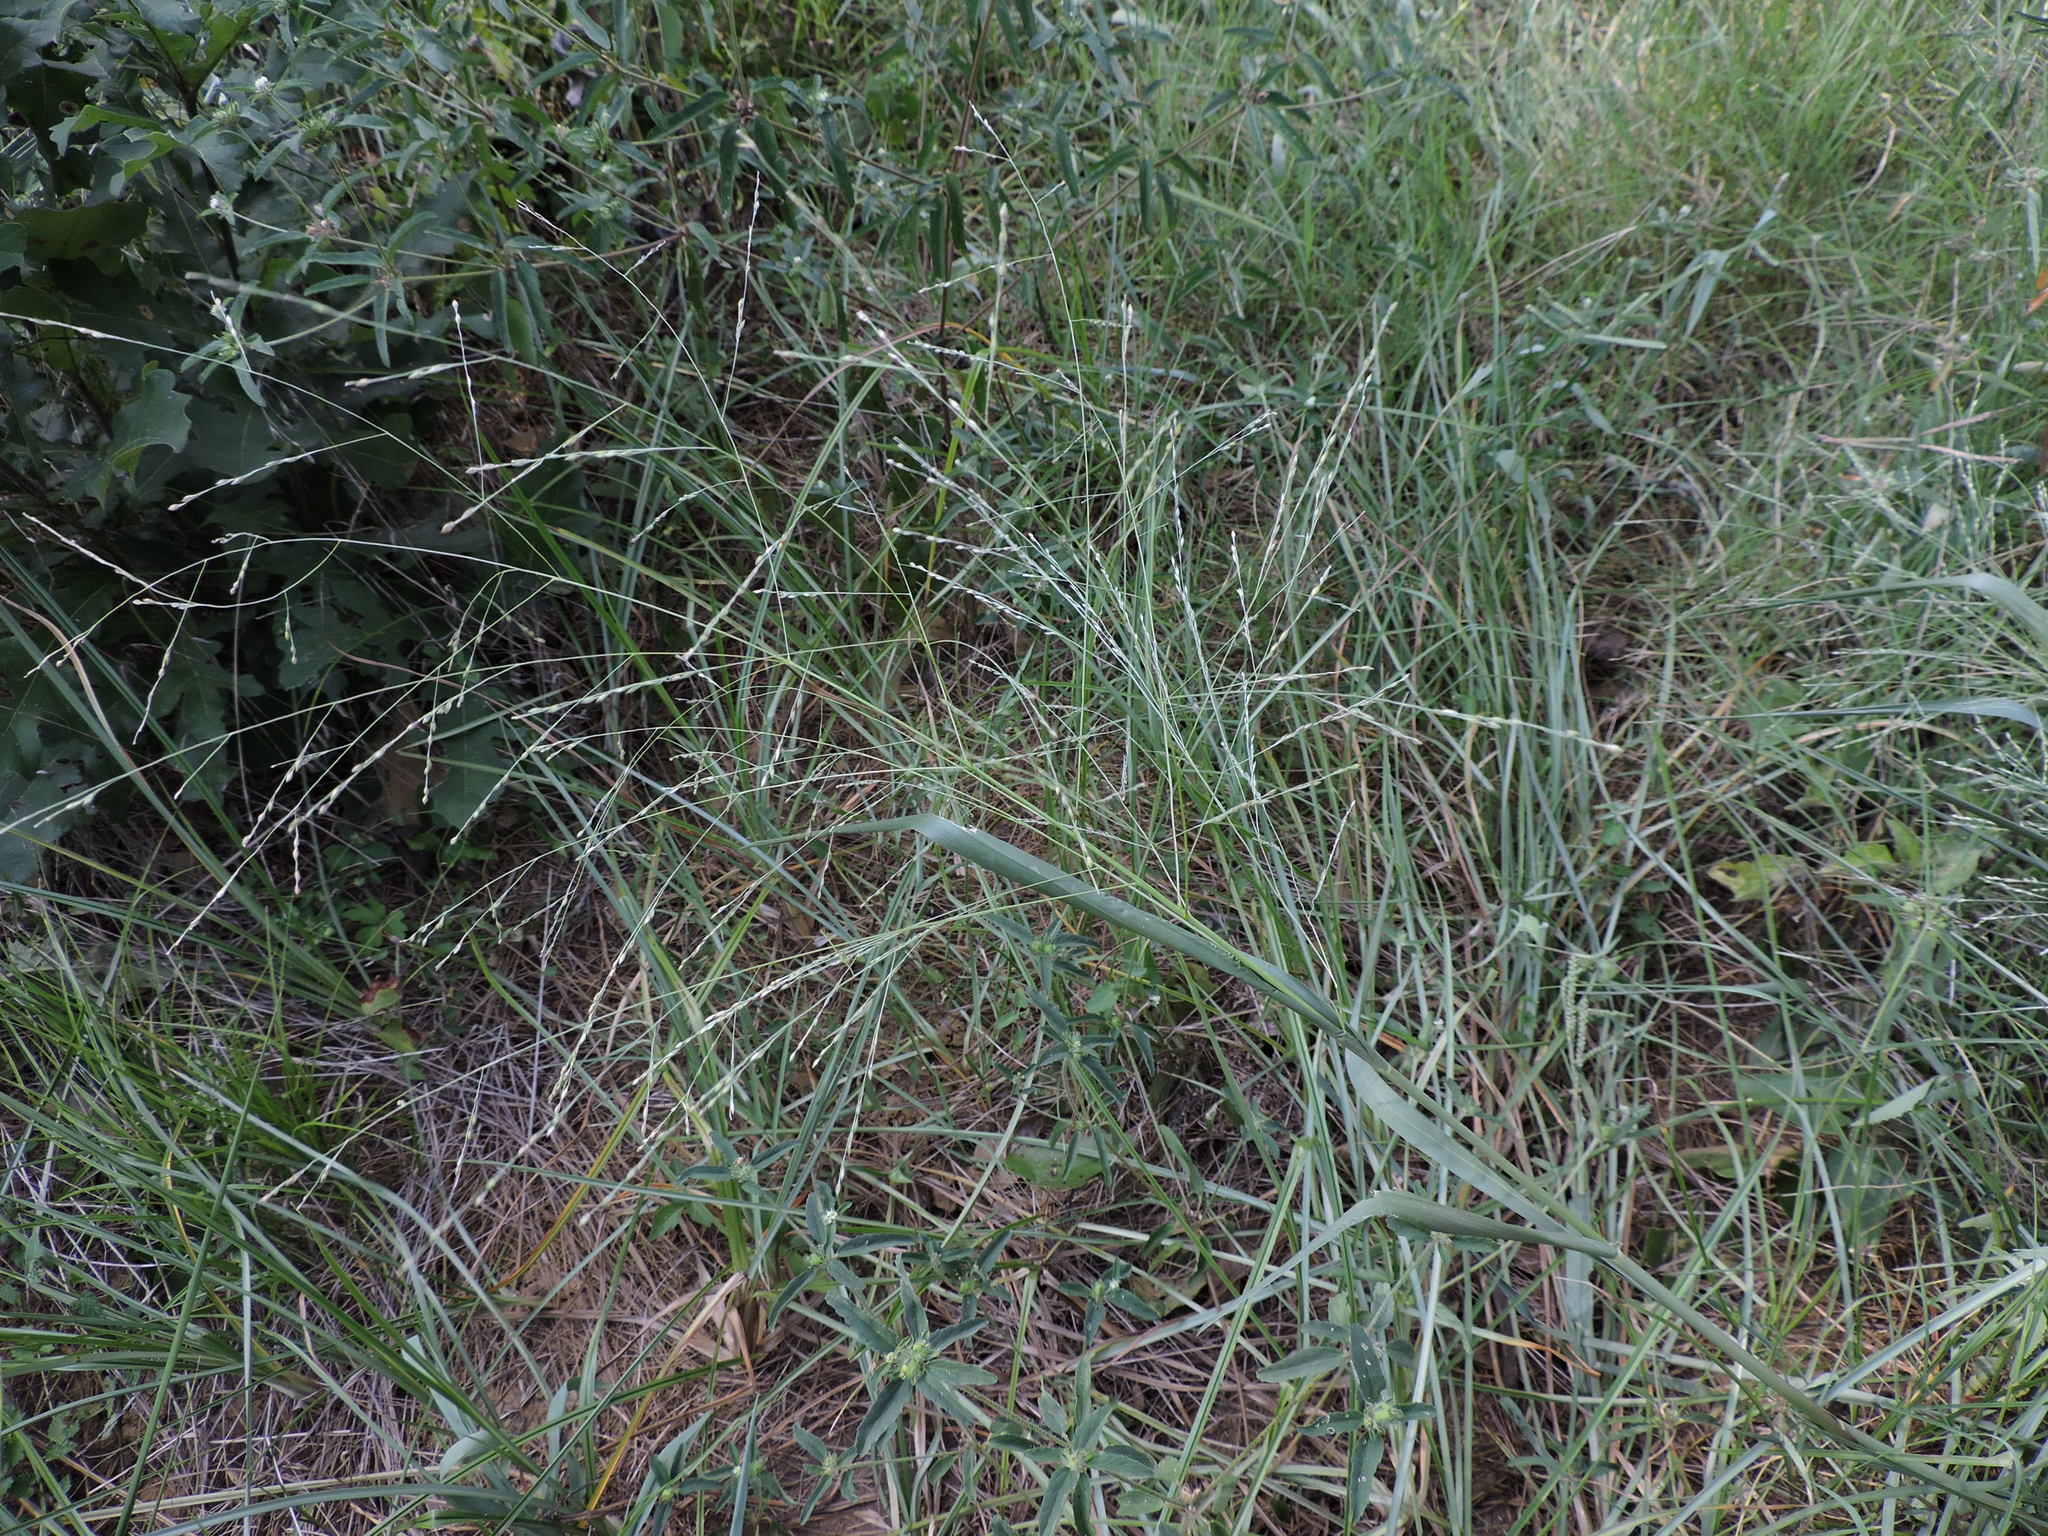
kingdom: Plantae
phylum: Tracheophyta
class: Liliopsida
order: Poales
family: Poaceae
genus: Panicum
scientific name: Panicum dichotomiflorum
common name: Autumn millet
